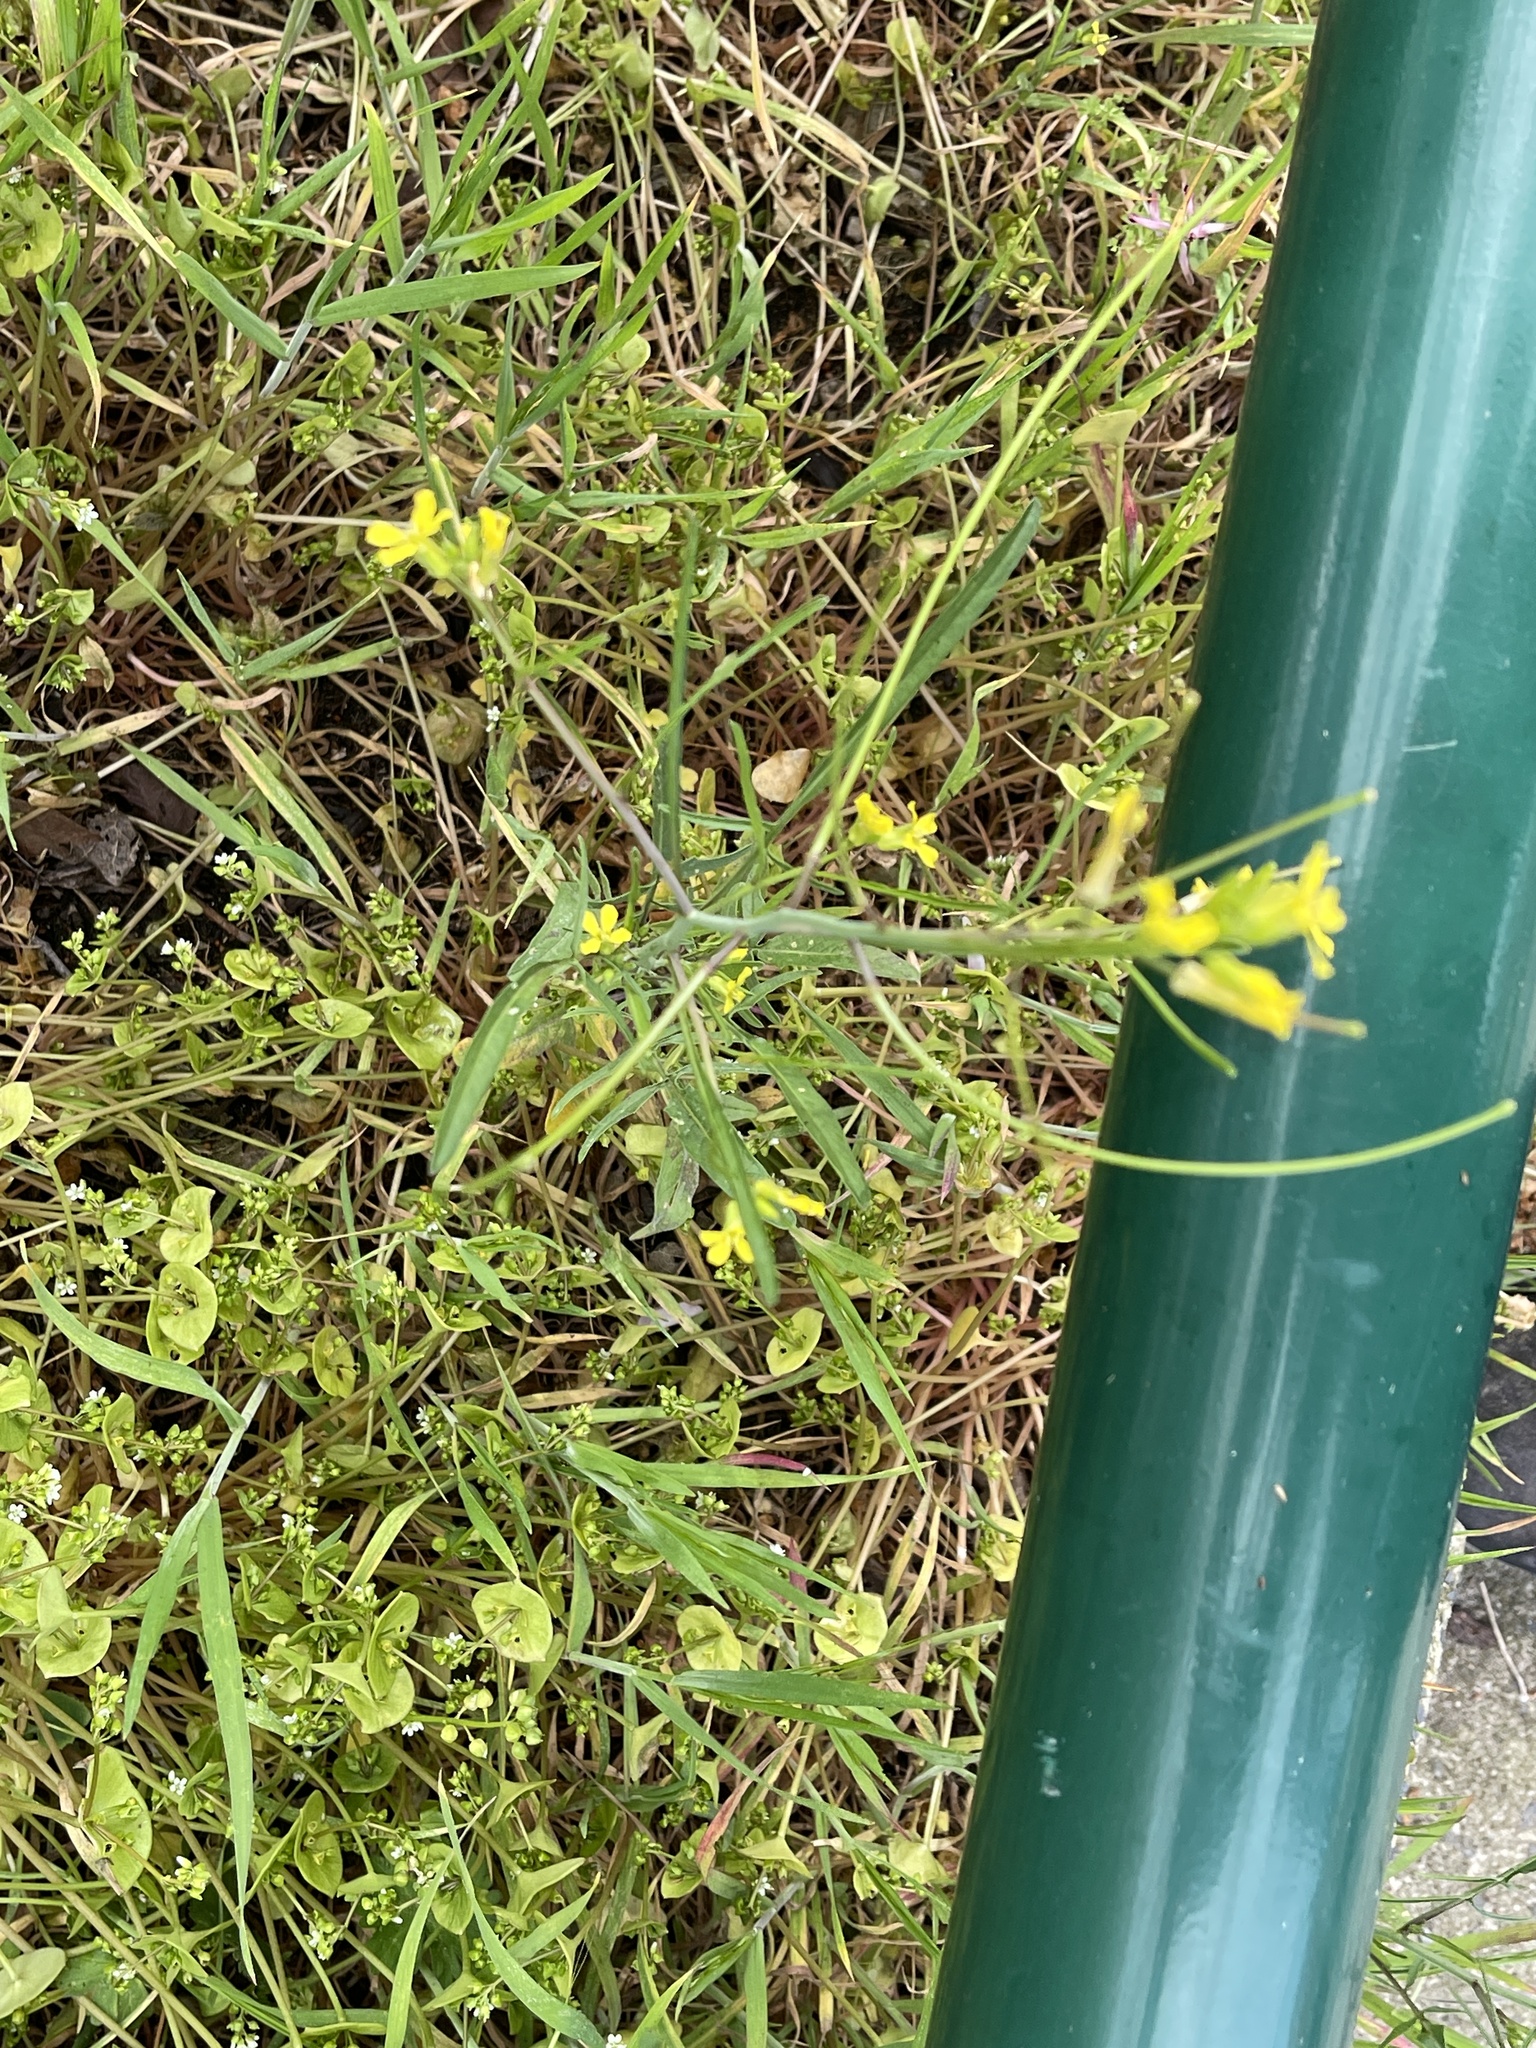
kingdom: Plantae
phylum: Tracheophyta
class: Magnoliopsida
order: Brassicales
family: Brassicaceae
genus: Sisymbrium
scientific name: Sisymbrium orientale
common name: Eastern rocket
